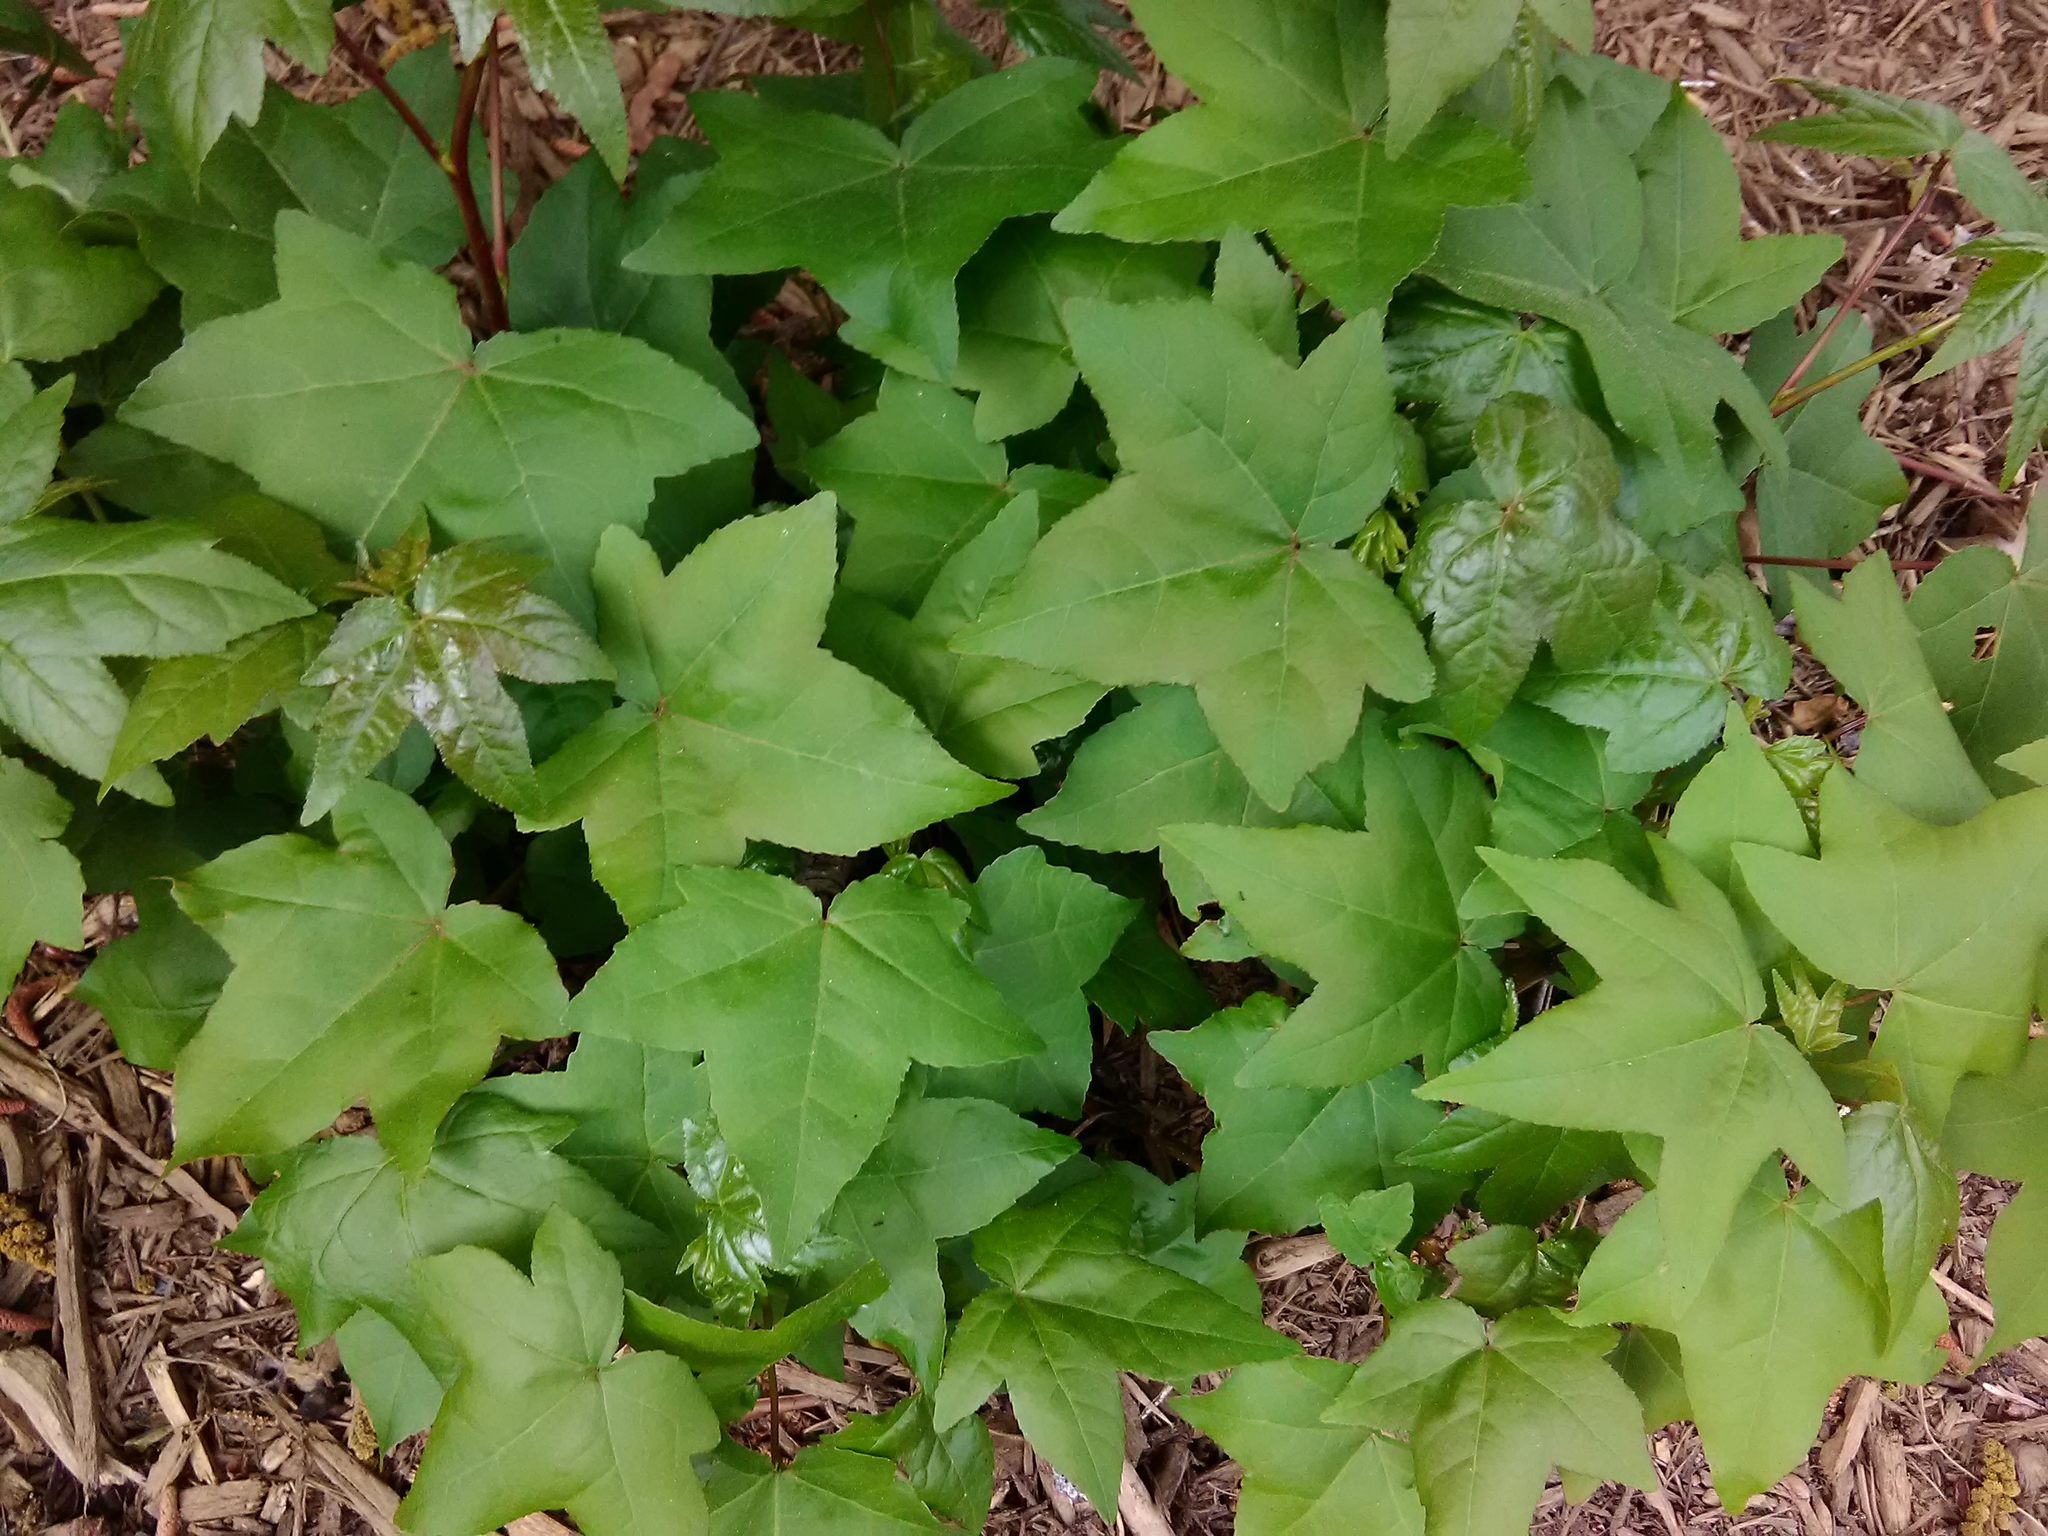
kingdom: Plantae
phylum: Tracheophyta
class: Magnoliopsida
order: Saxifragales
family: Altingiaceae
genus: Liquidambar
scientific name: Liquidambar styraciflua
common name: Sweet gum
